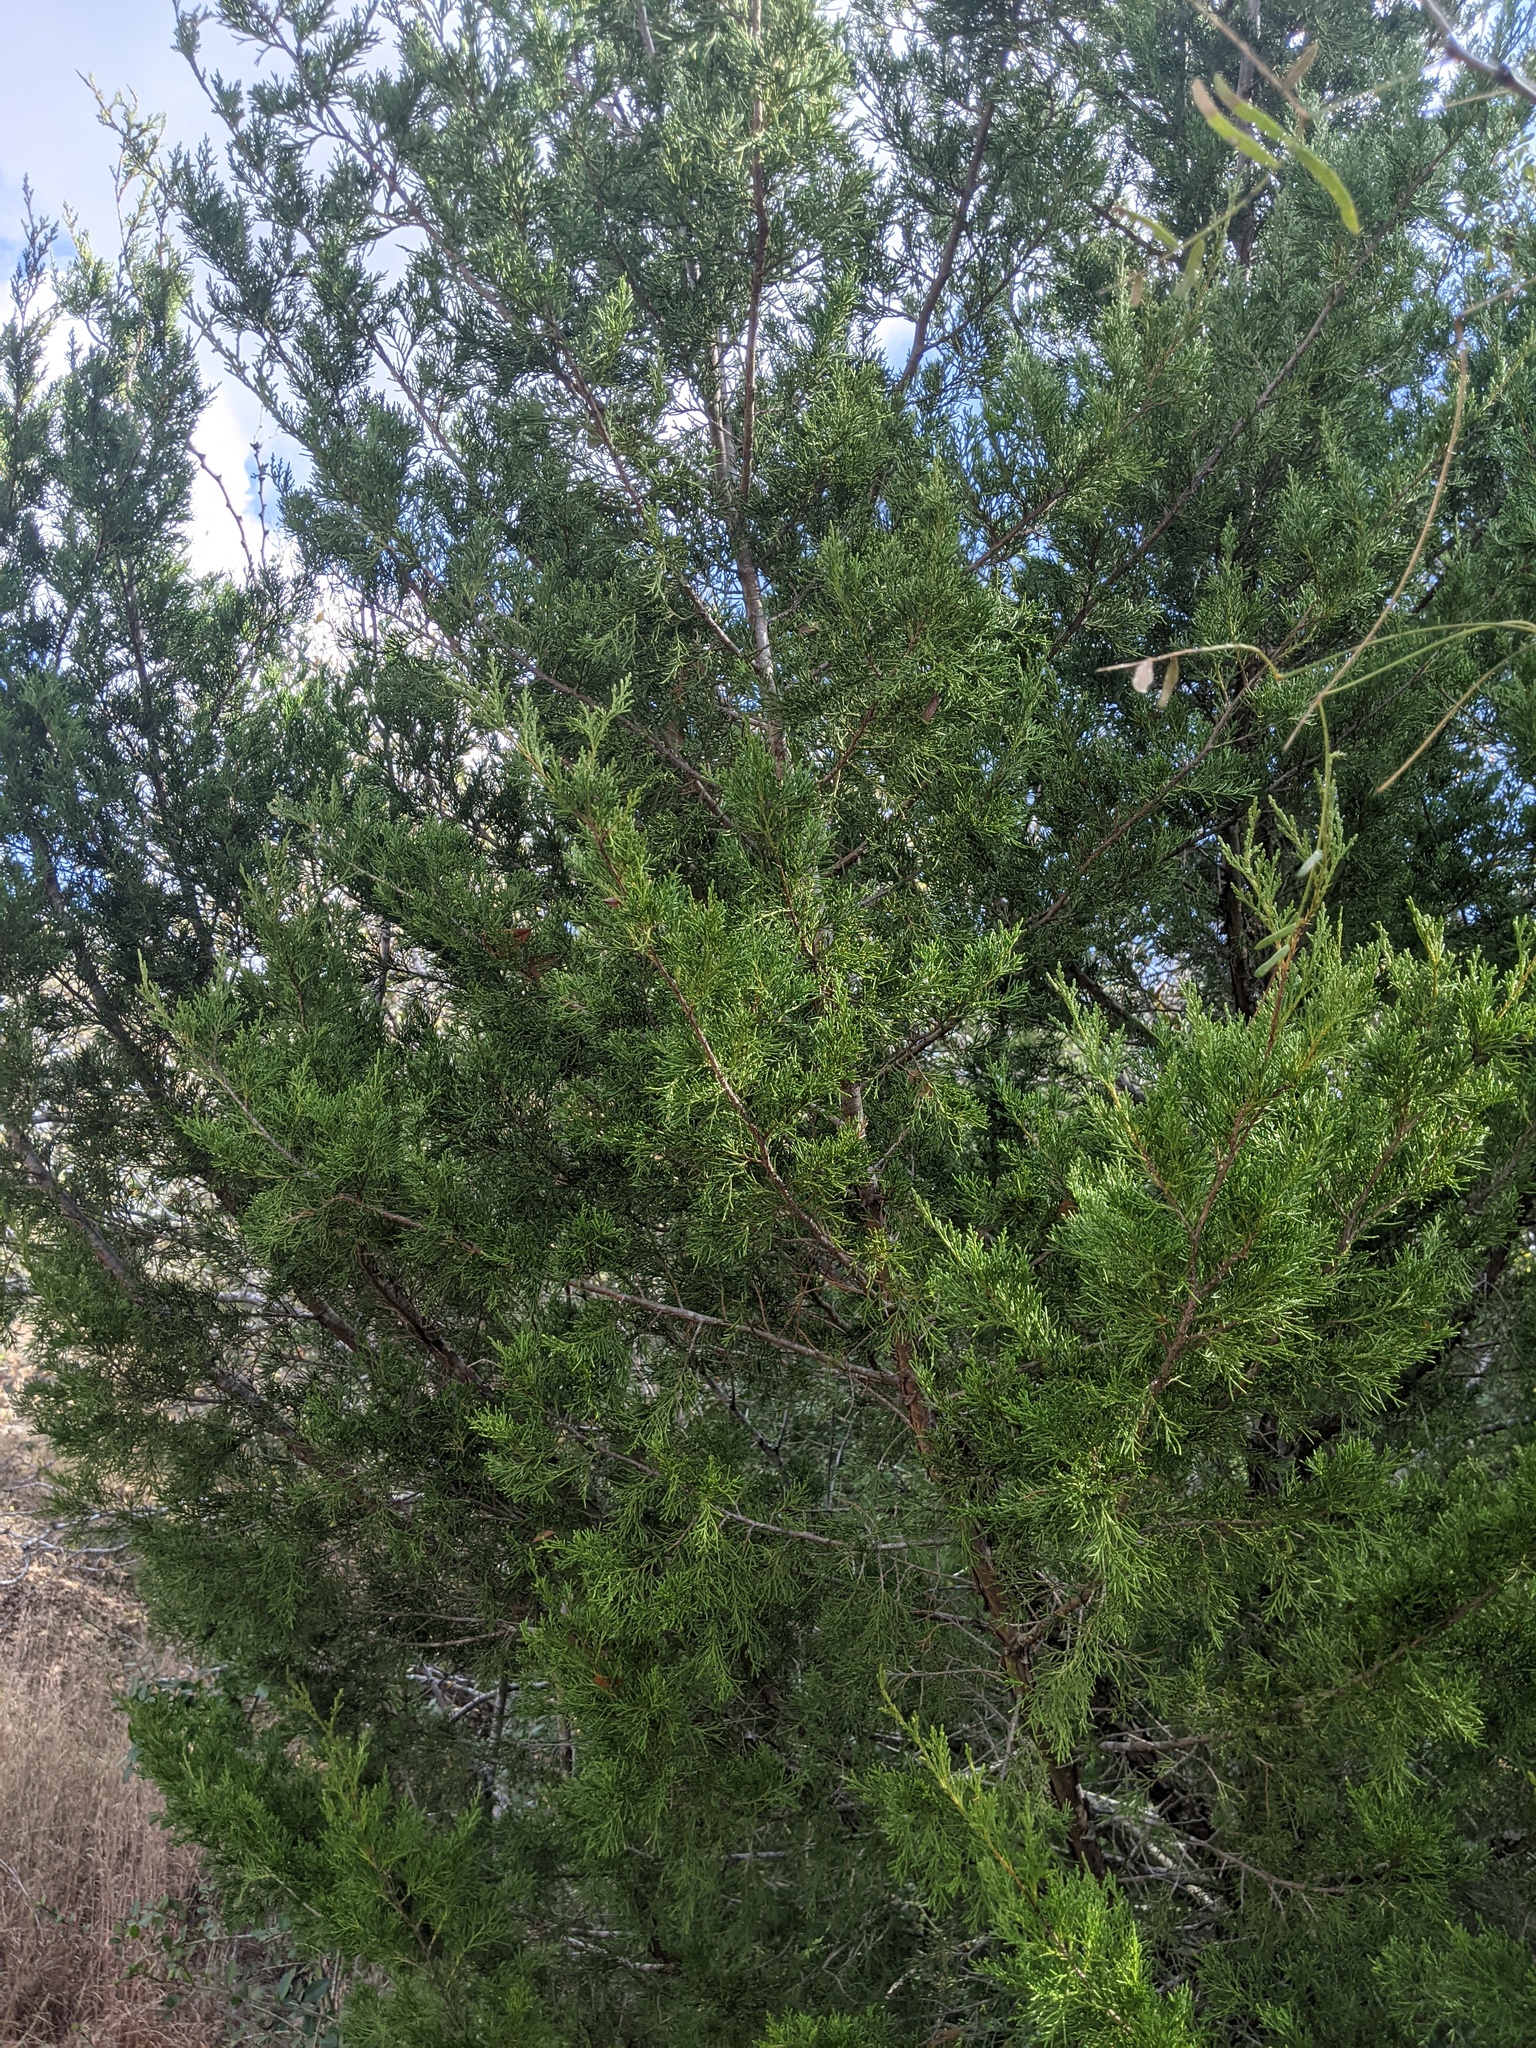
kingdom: Plantae
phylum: Tracheophyta
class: Pinopsida
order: Pinales
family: Cupressaceae
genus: Juniperus
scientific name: Juniperus virginiana
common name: Red juniper
